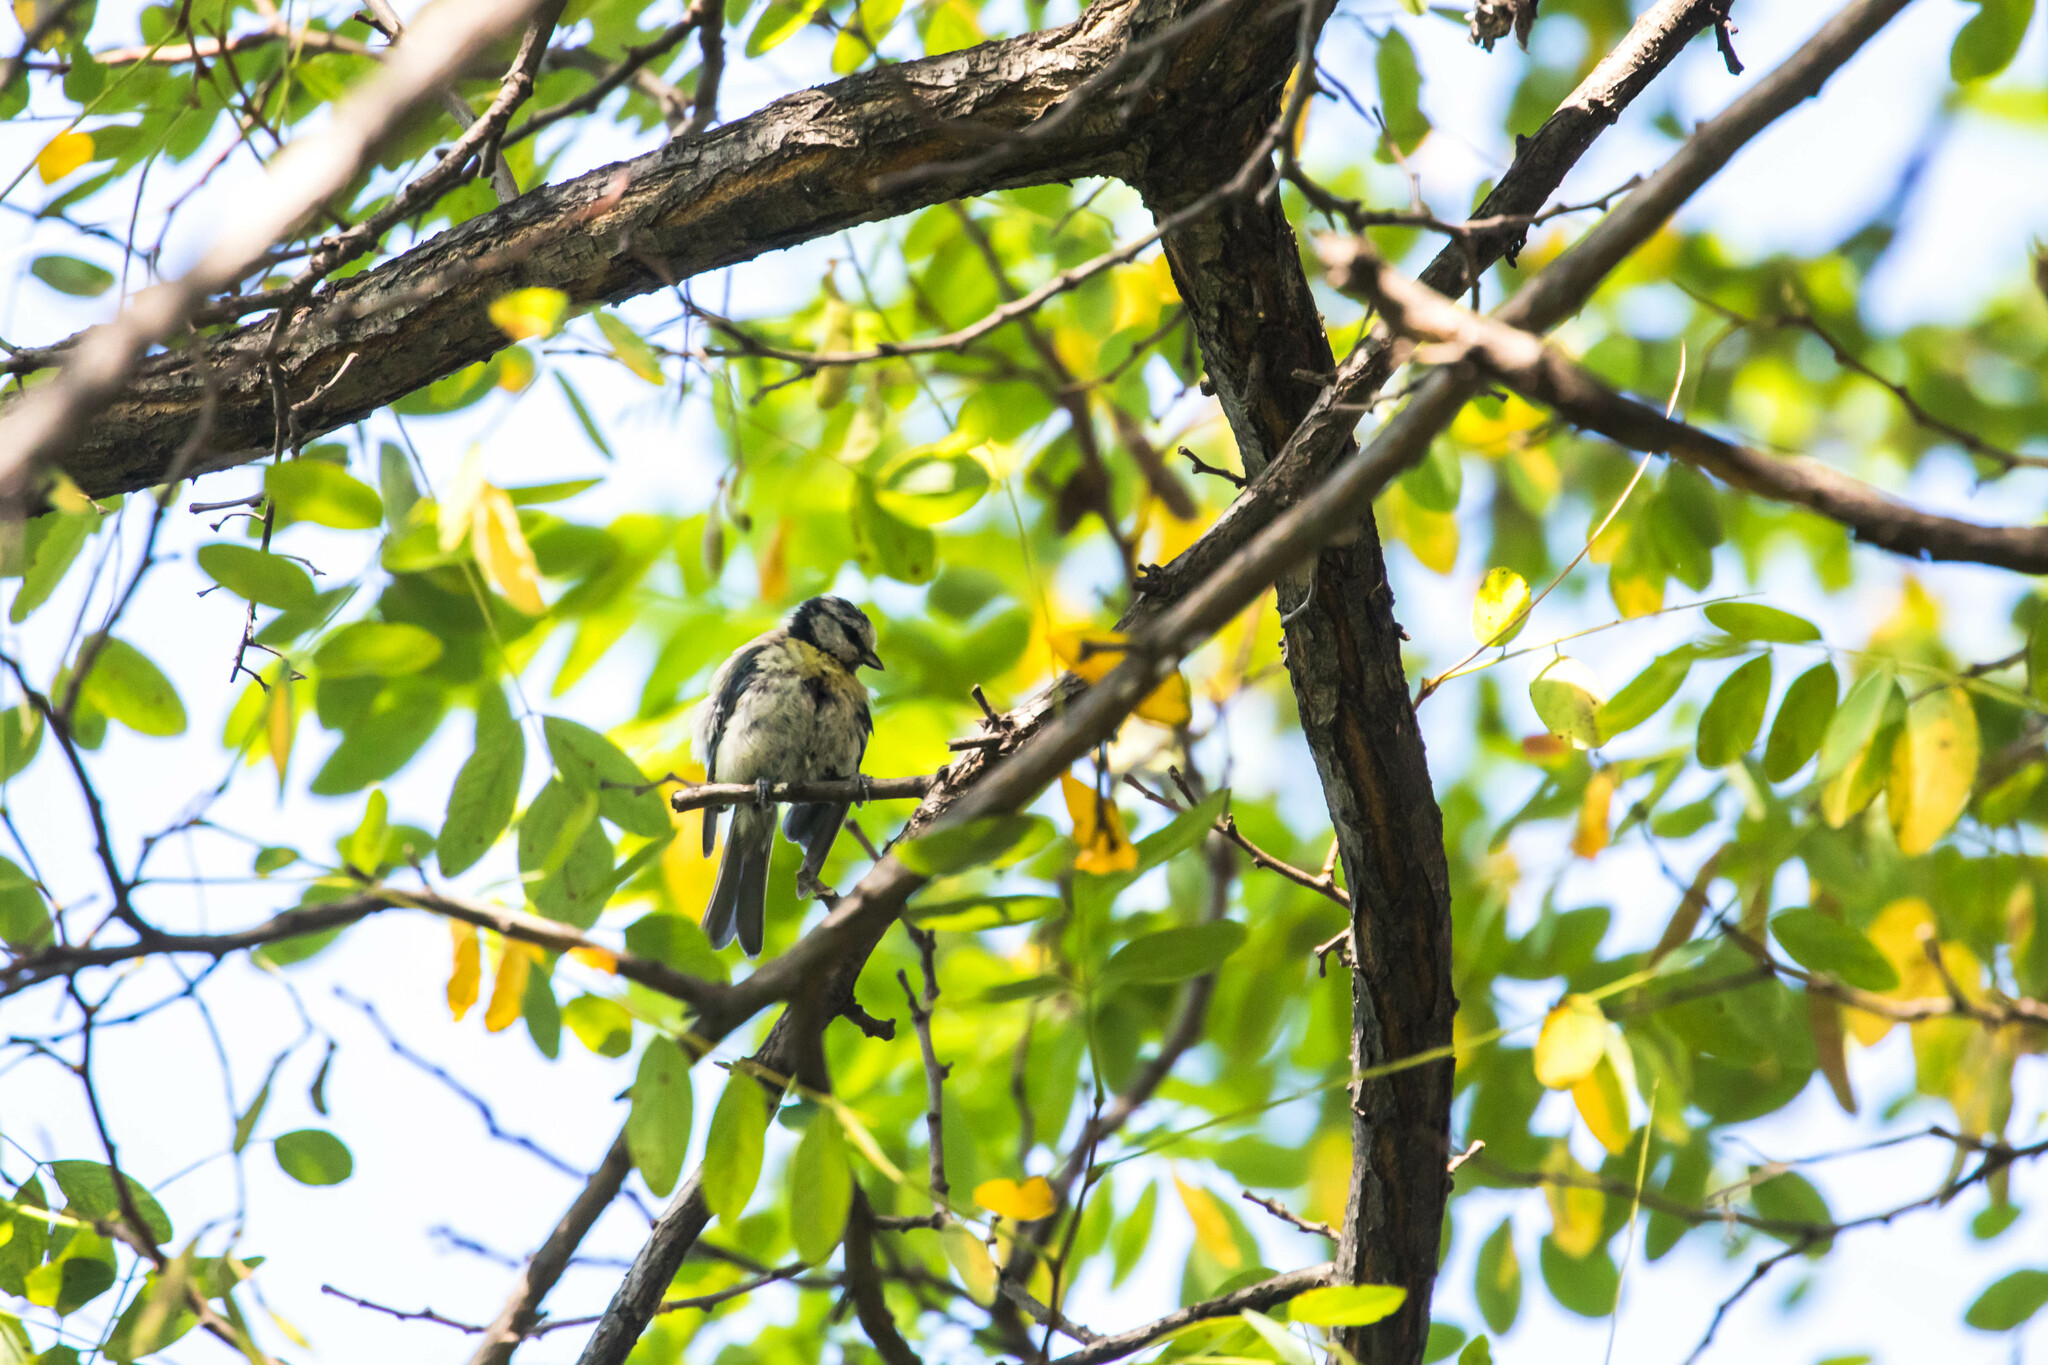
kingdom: Animalia
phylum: Chordata
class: Aves
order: Passeriformes
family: Paridae
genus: Cyanistes
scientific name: Cyanistes caeruleus
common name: Eurasian blue tit
